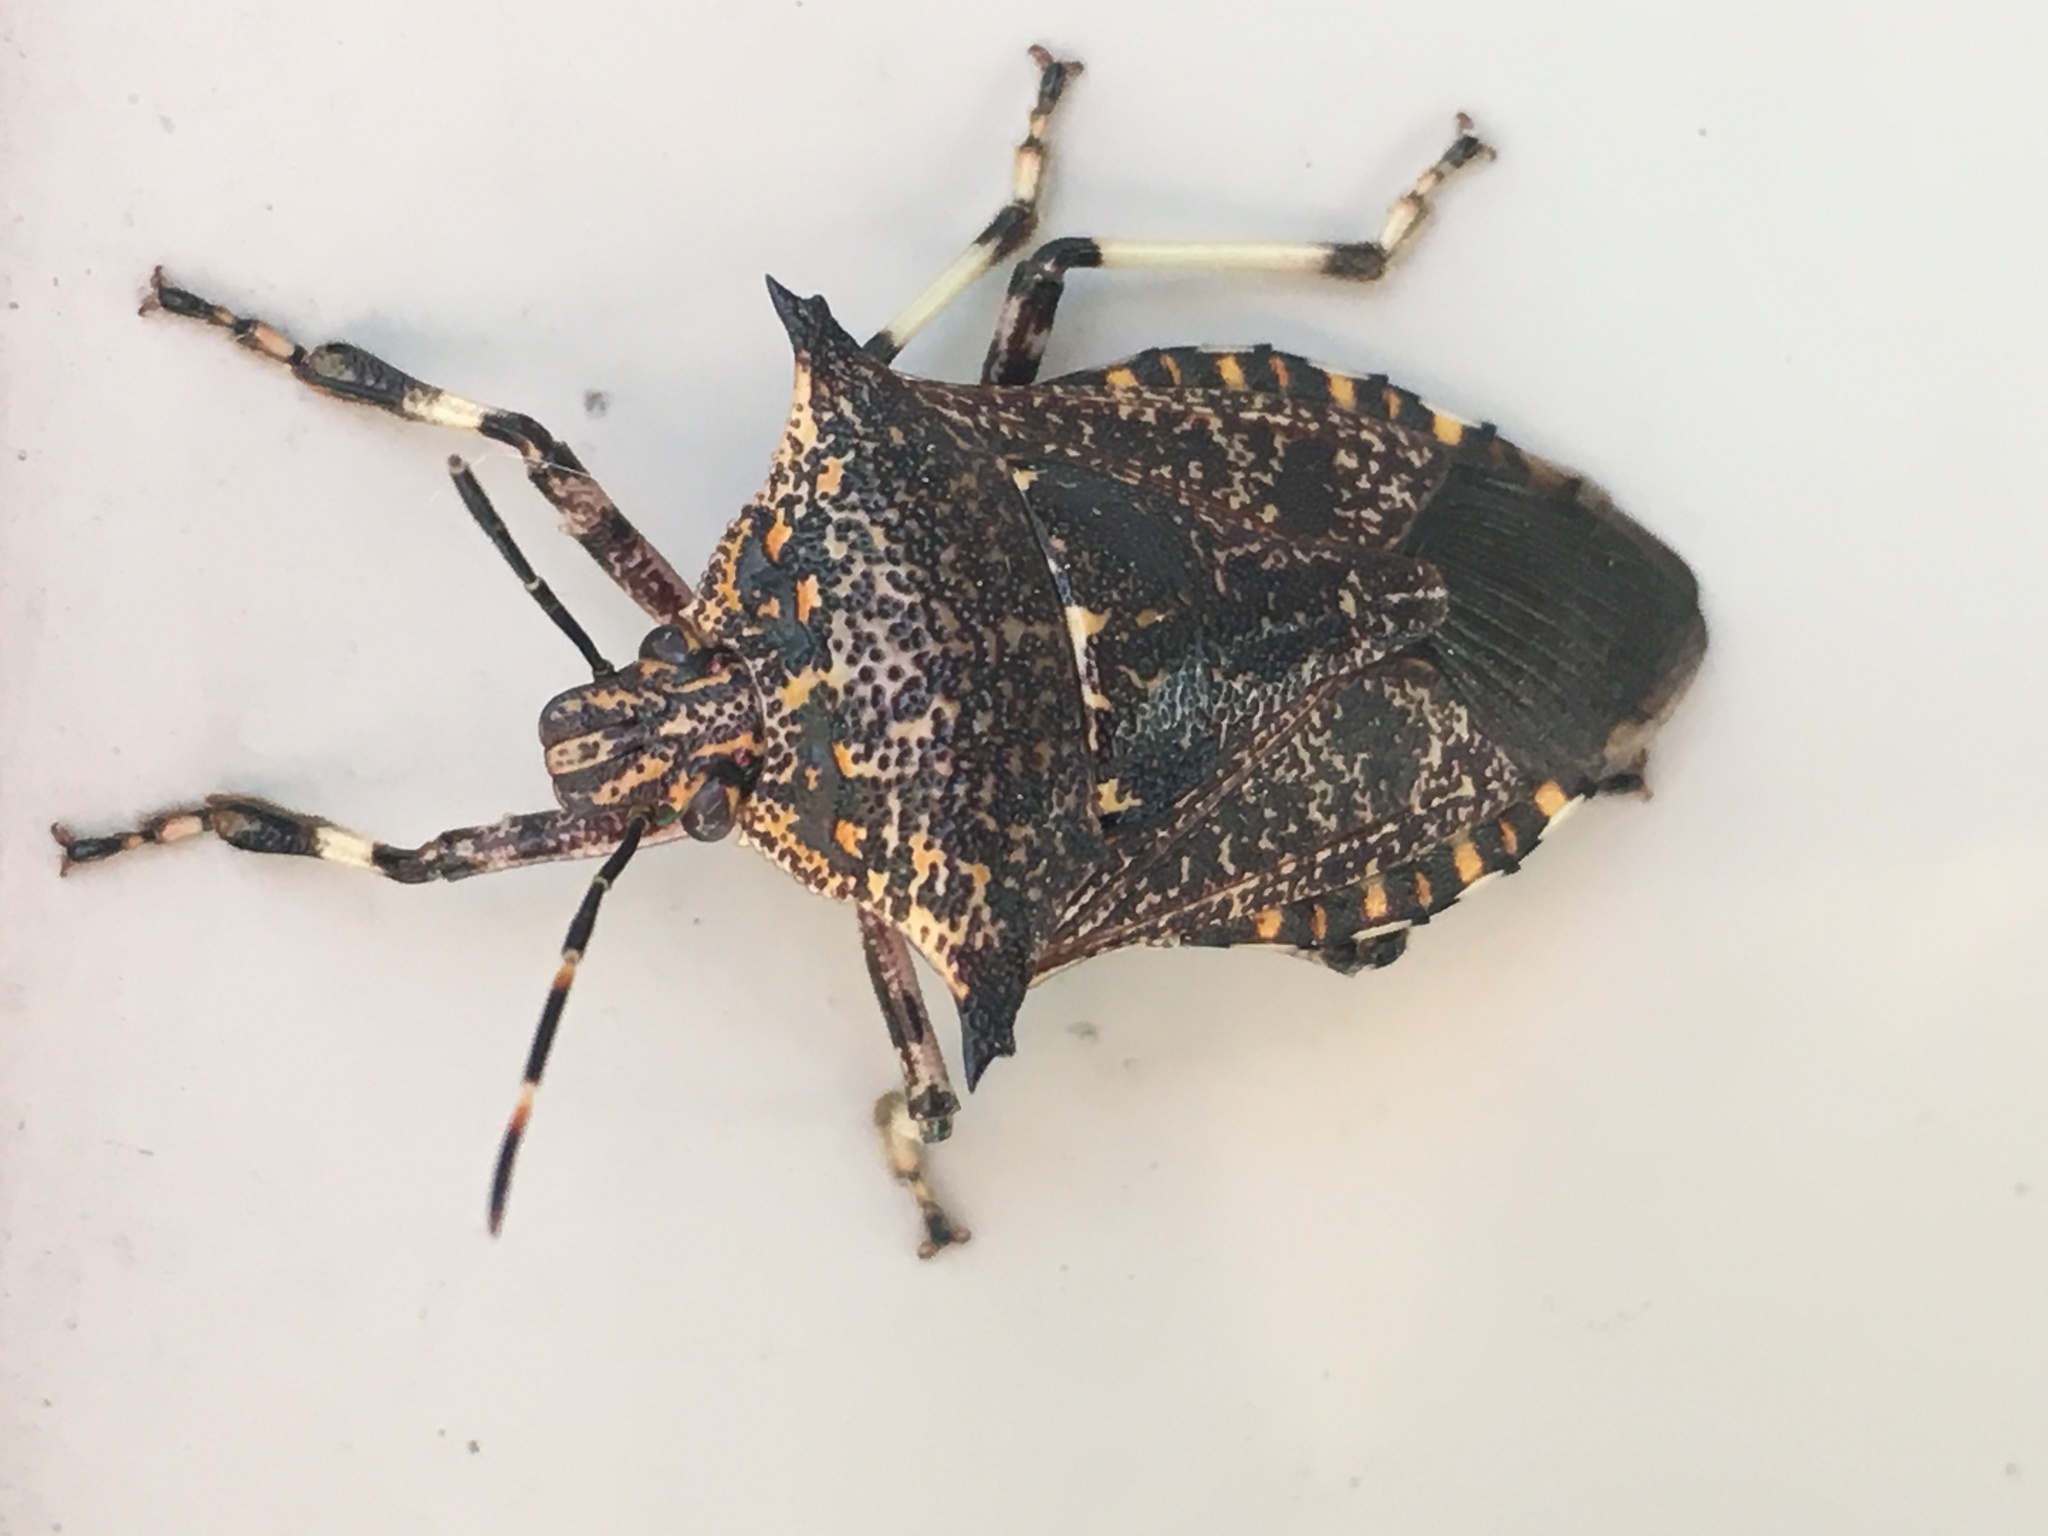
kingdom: Animalia
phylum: Arthropoda
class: Insecta
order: Hemiptera
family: Pentatomidae
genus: Alcaeorrhynchus
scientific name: Alcaeorrhynchus grandis
